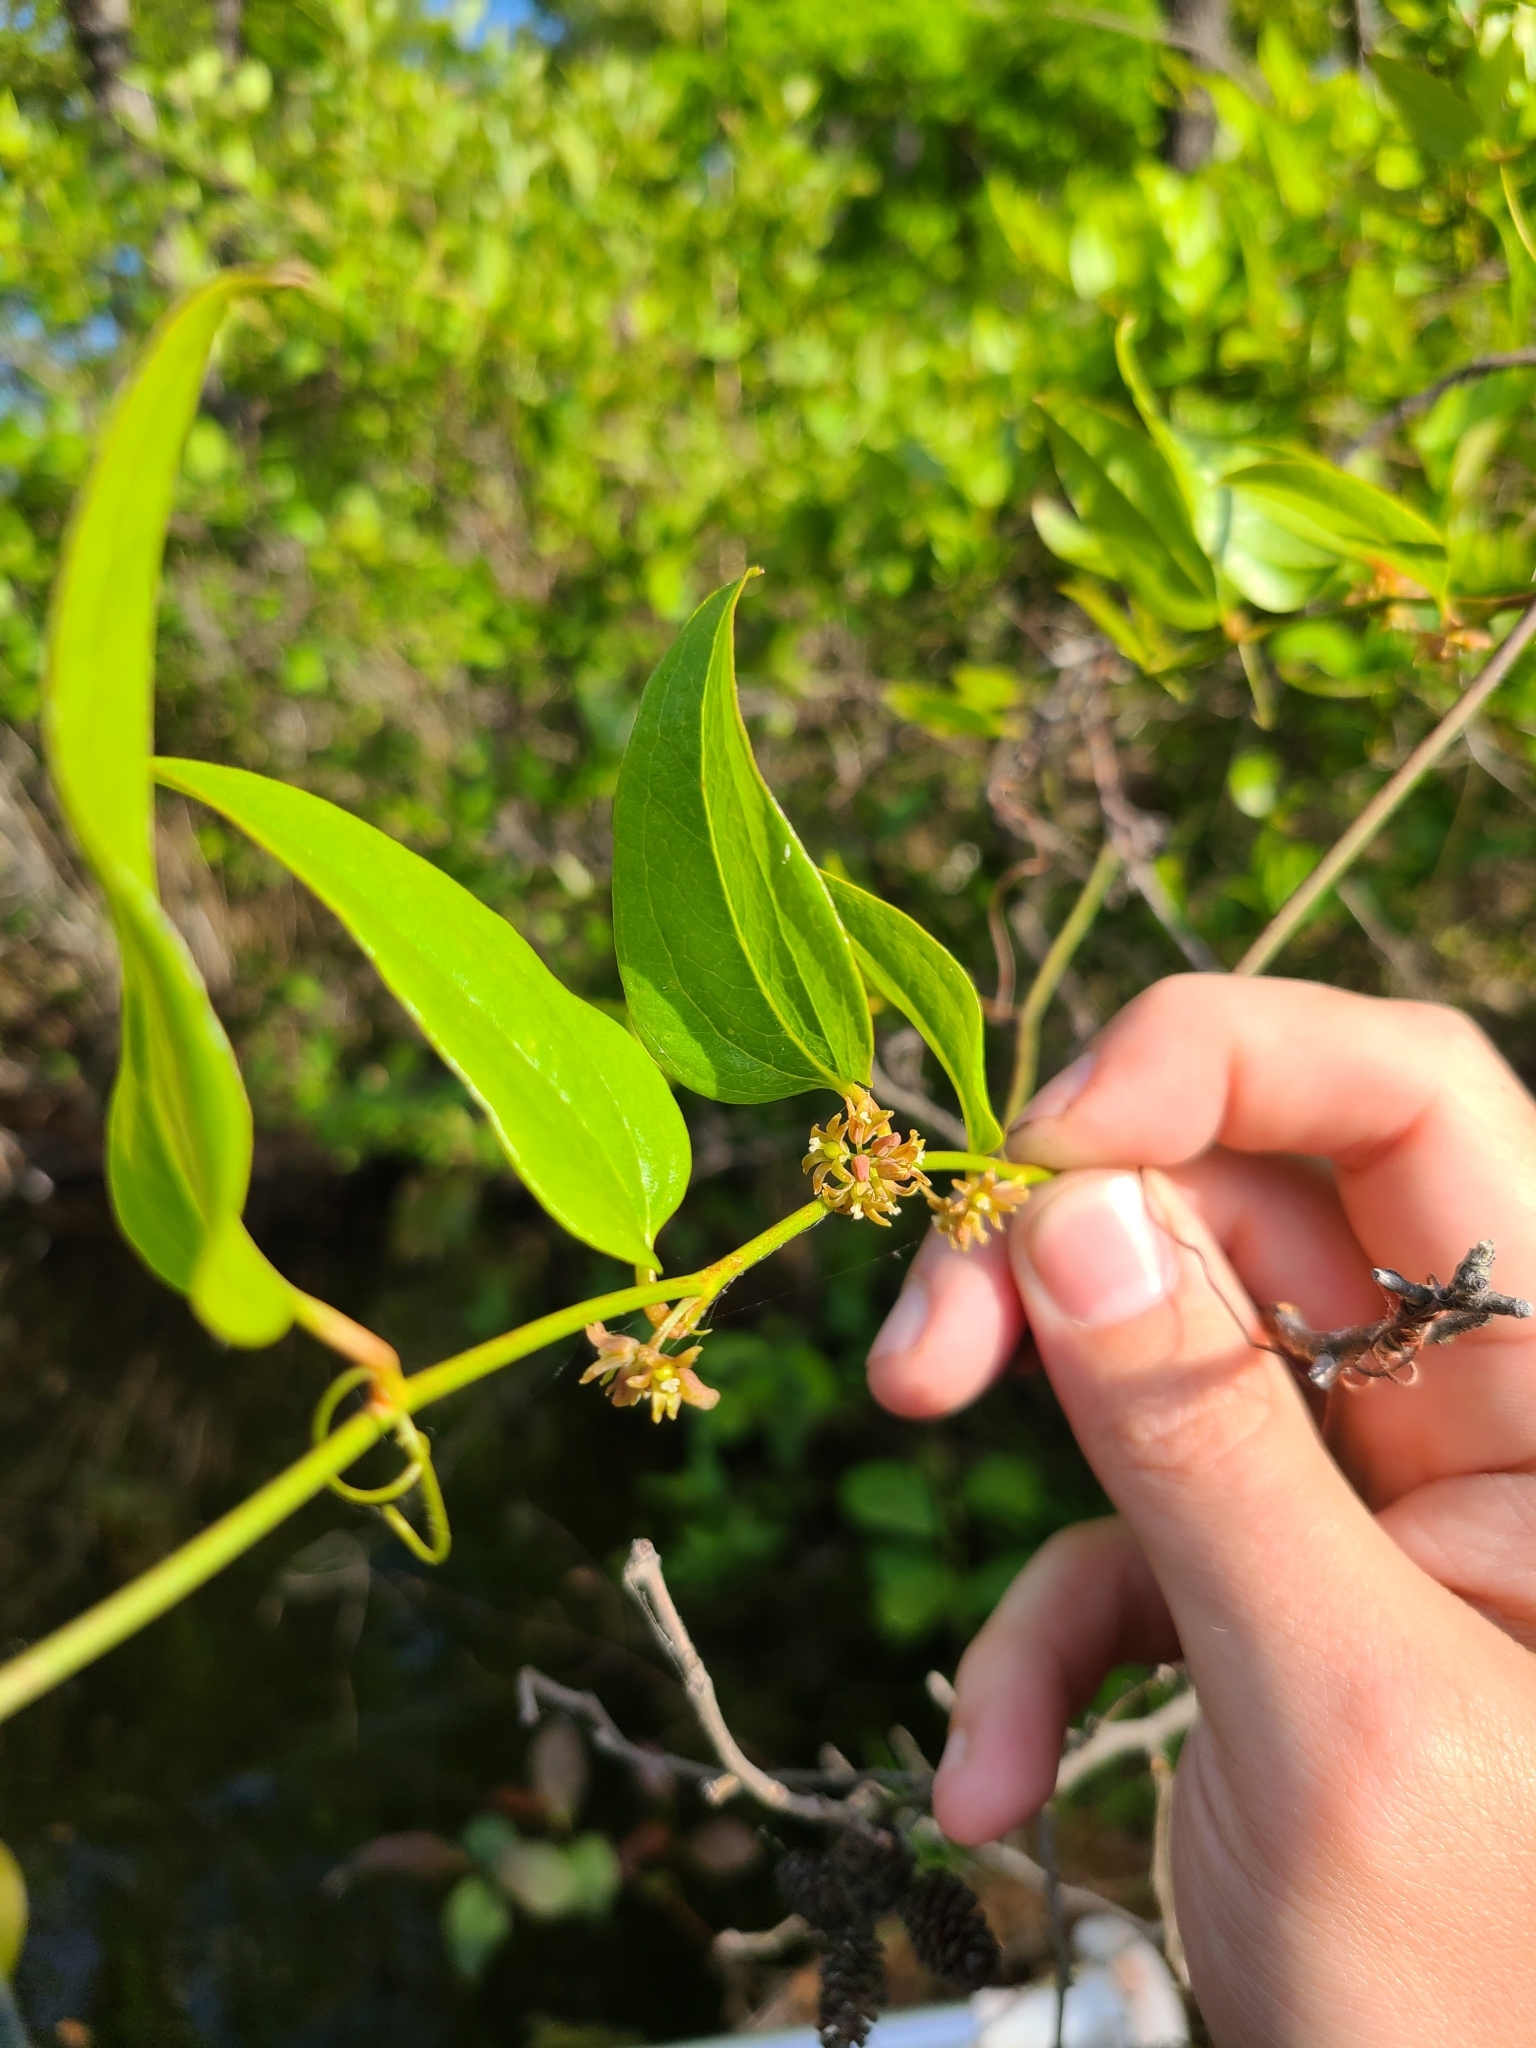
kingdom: Plantae
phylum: Tracheophyta
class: Liliopsida
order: Liliales
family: Smilacaceae
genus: Smilax
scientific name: Smilax glauca
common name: Cat greenbrier
